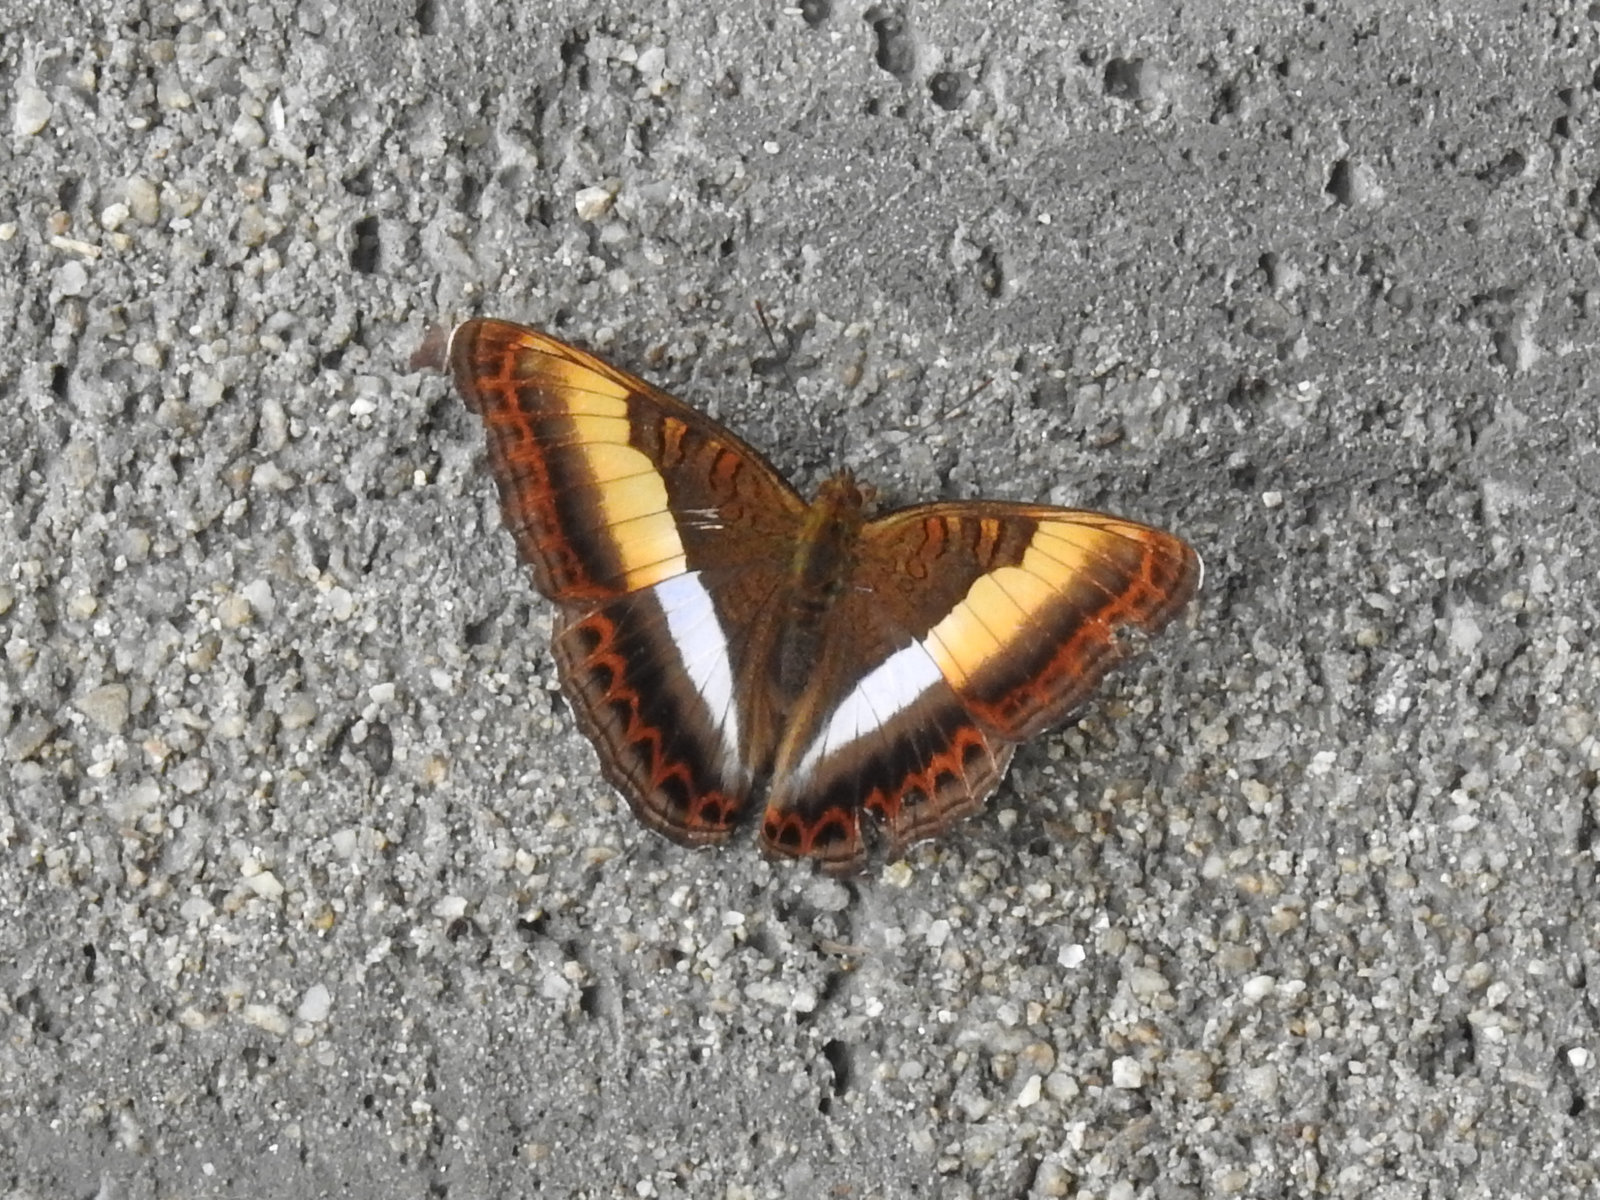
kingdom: Animalia
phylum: Arthropoda
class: Insecta
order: Lepidoptera
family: Nymphalidae
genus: Limenitis
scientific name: Limenitis Parasarpa zayla
